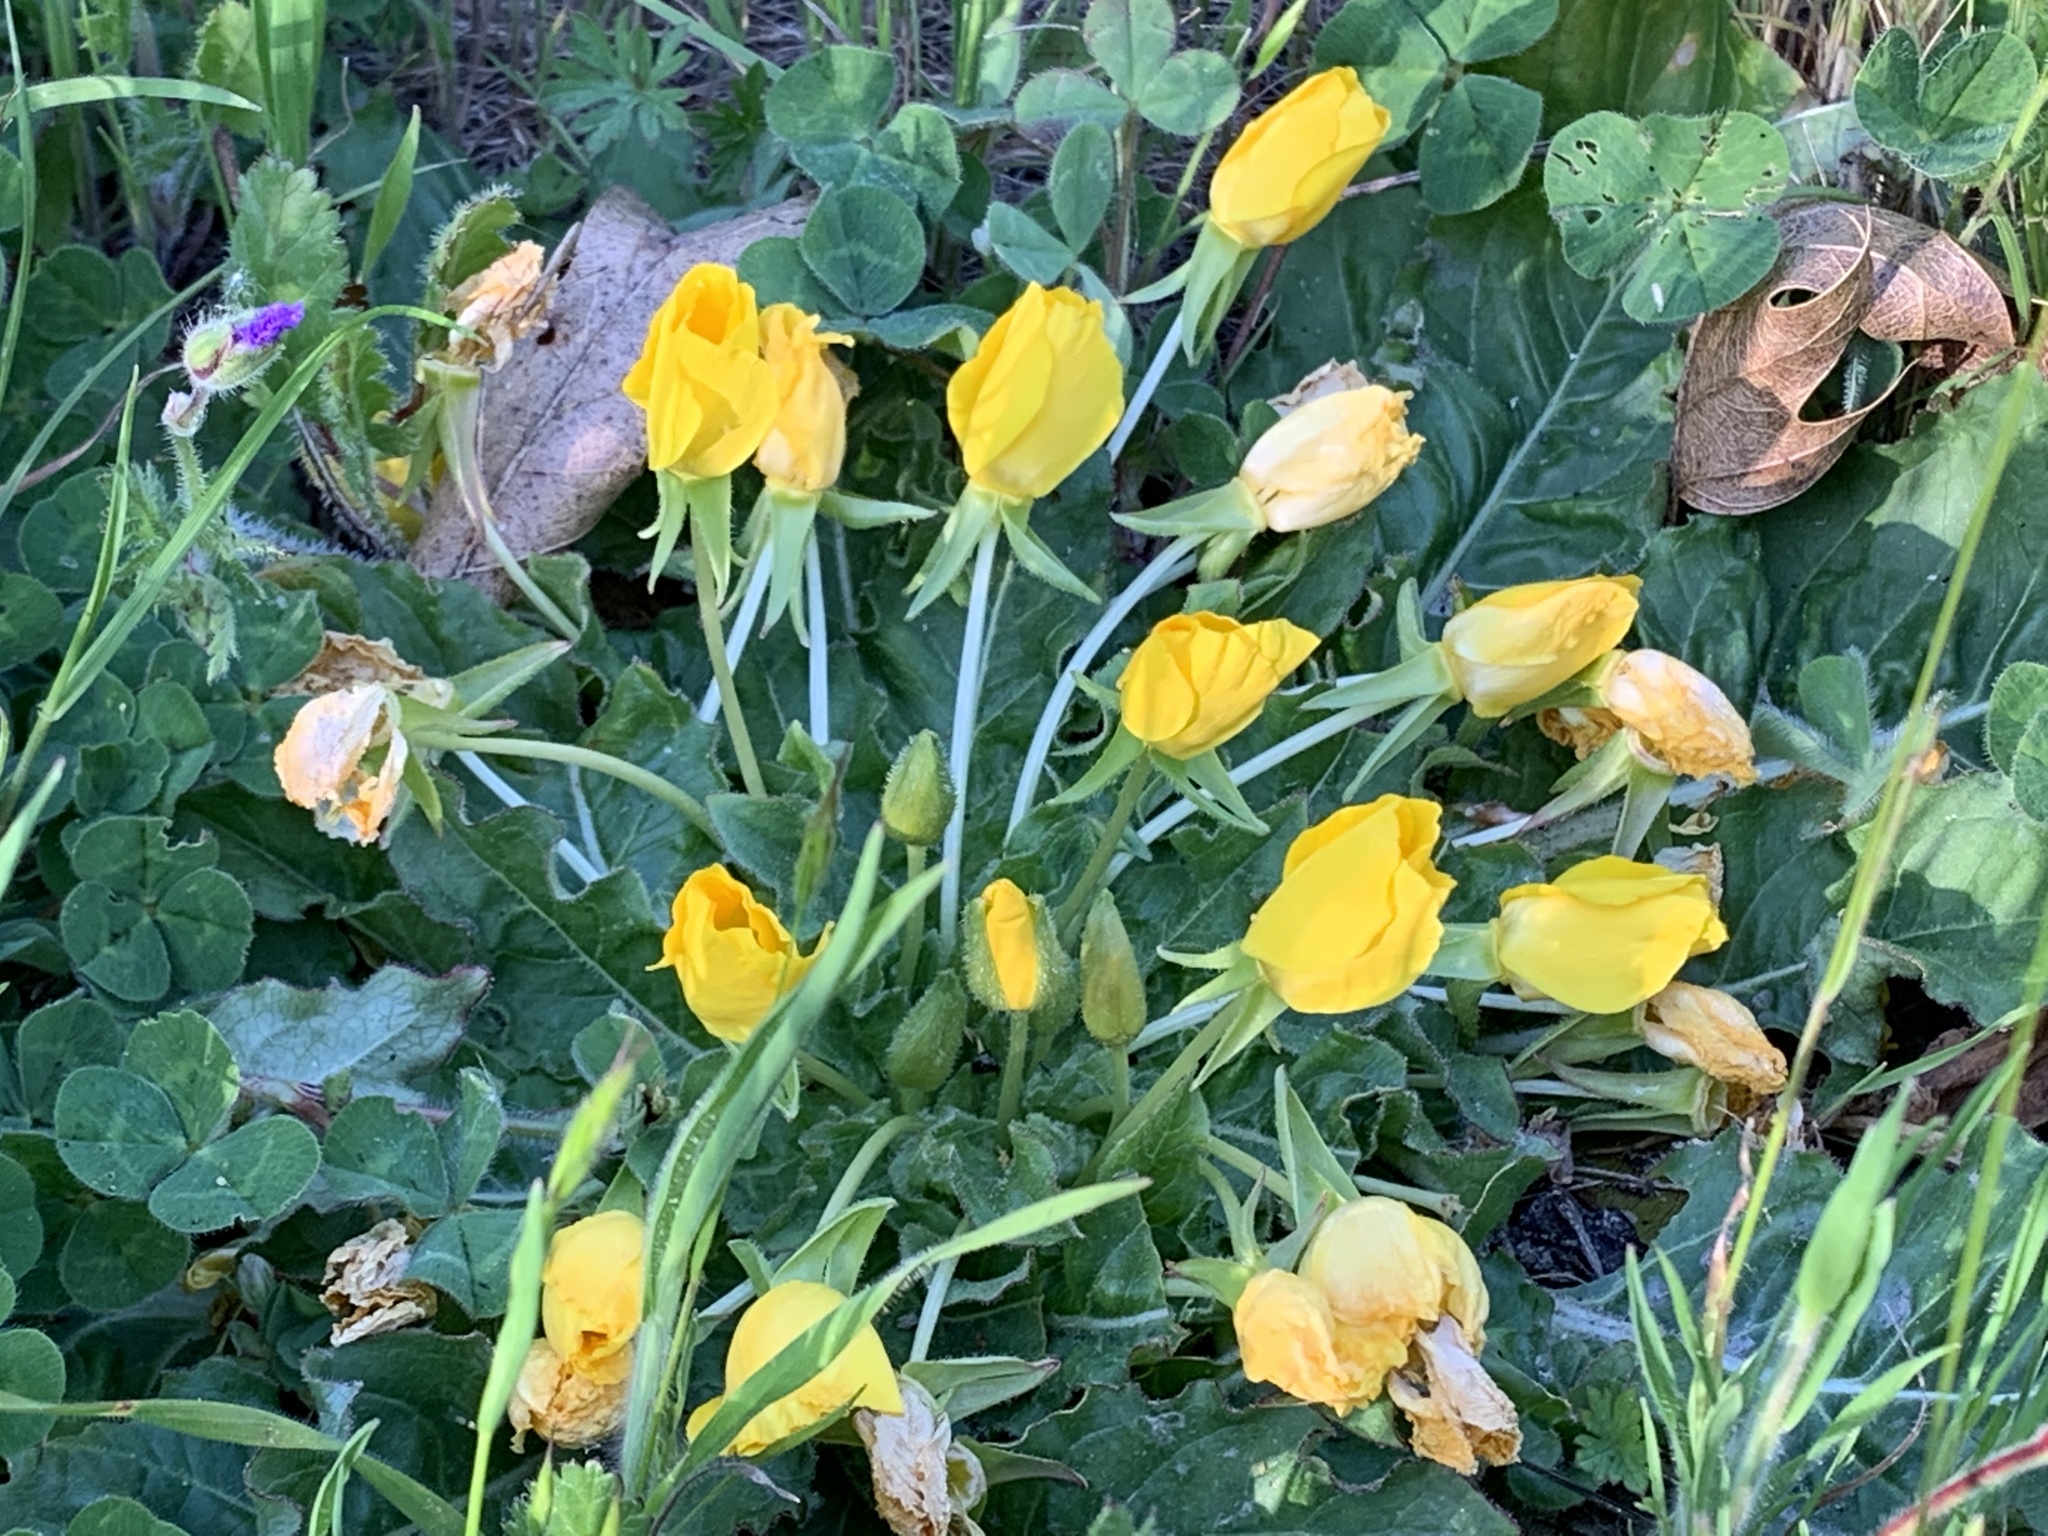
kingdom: Plantae
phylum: Tracheophyta
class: Magnoliopsida
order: Myrtales
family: Onagraceae
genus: Taraxia
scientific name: Taraxia ovata
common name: Goldeneggs
